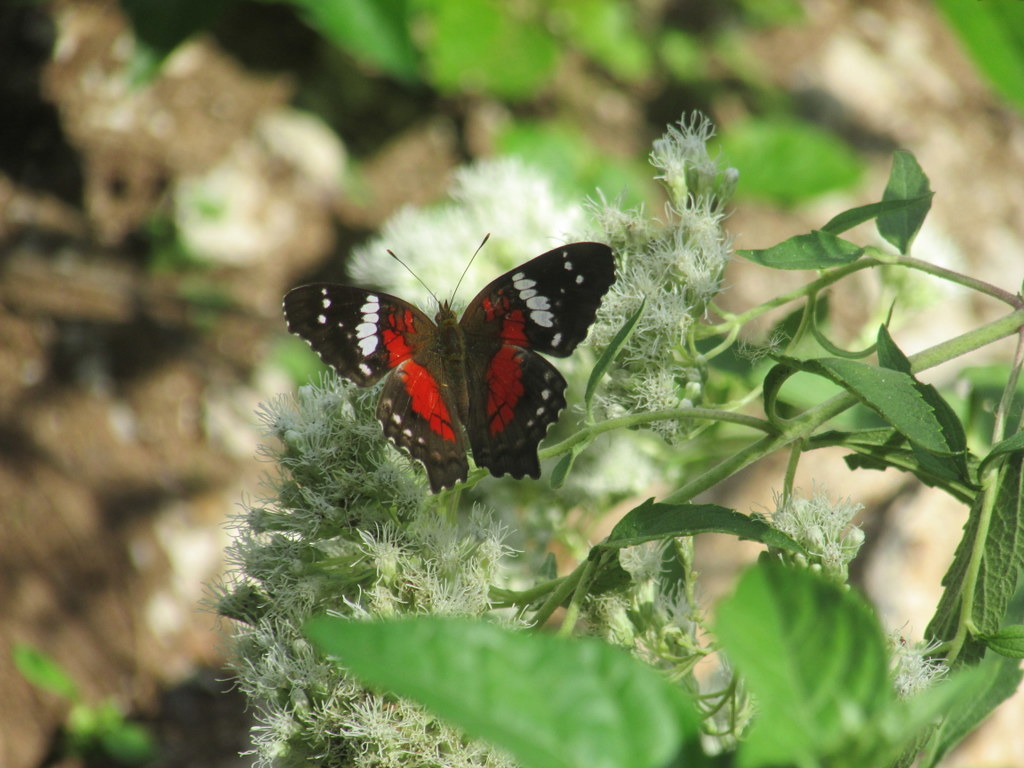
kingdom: Animalia
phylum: Arthropoda
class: Insecta
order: Lepidoptera
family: Nymphalidae
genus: Anartia
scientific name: Anartia amathea
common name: Red peacock
